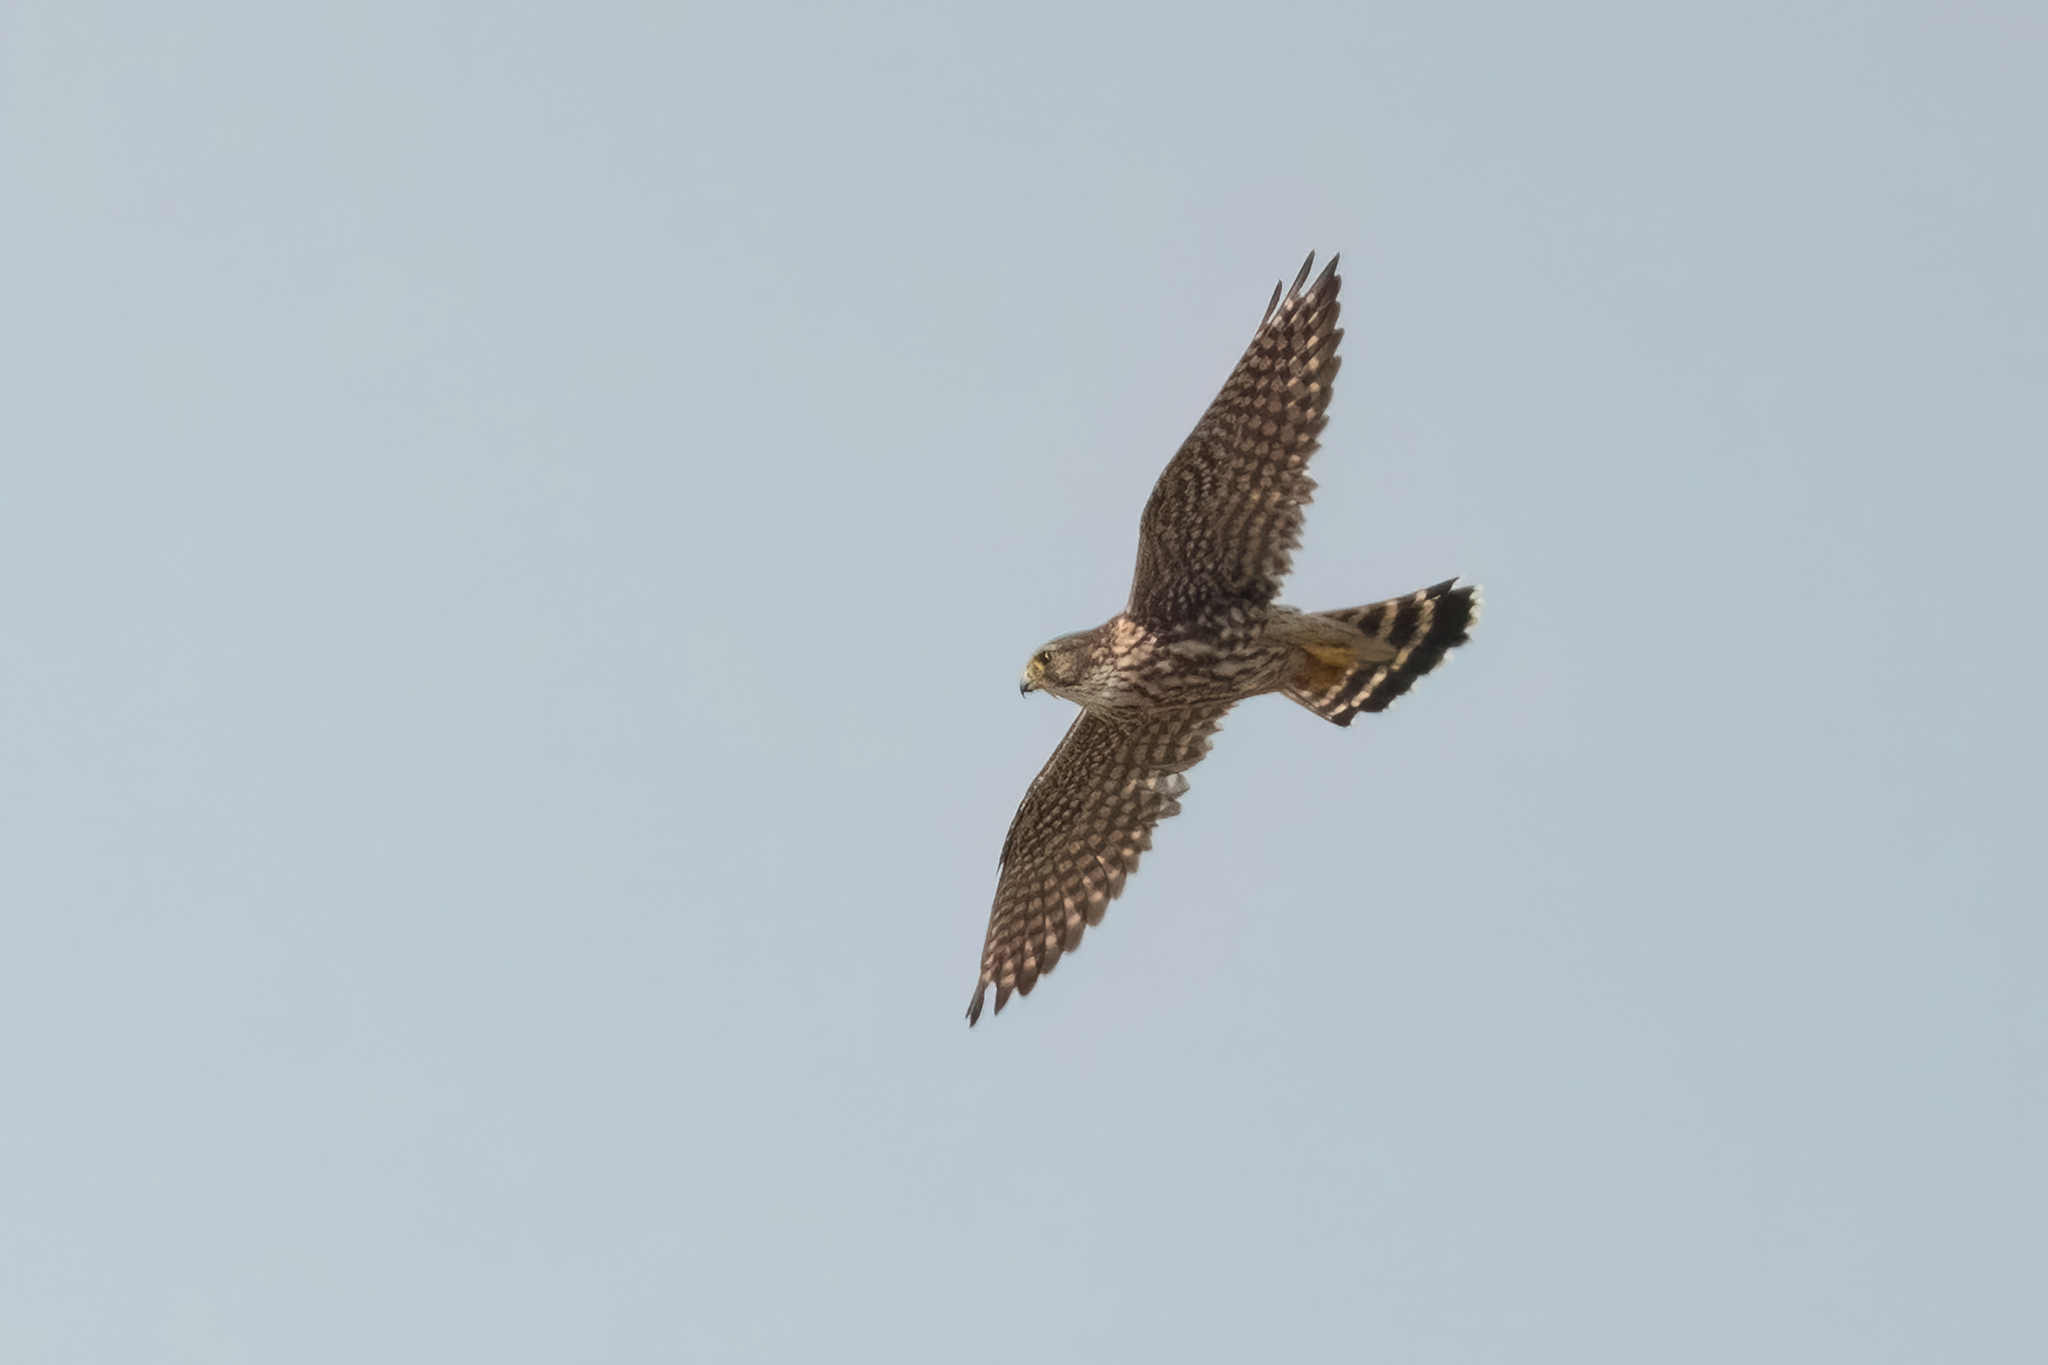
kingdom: Animalia
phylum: Chordata
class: Aves
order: Falconiformes
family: Falconidae
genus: Falco
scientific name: Falco columbarius
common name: Merlin
